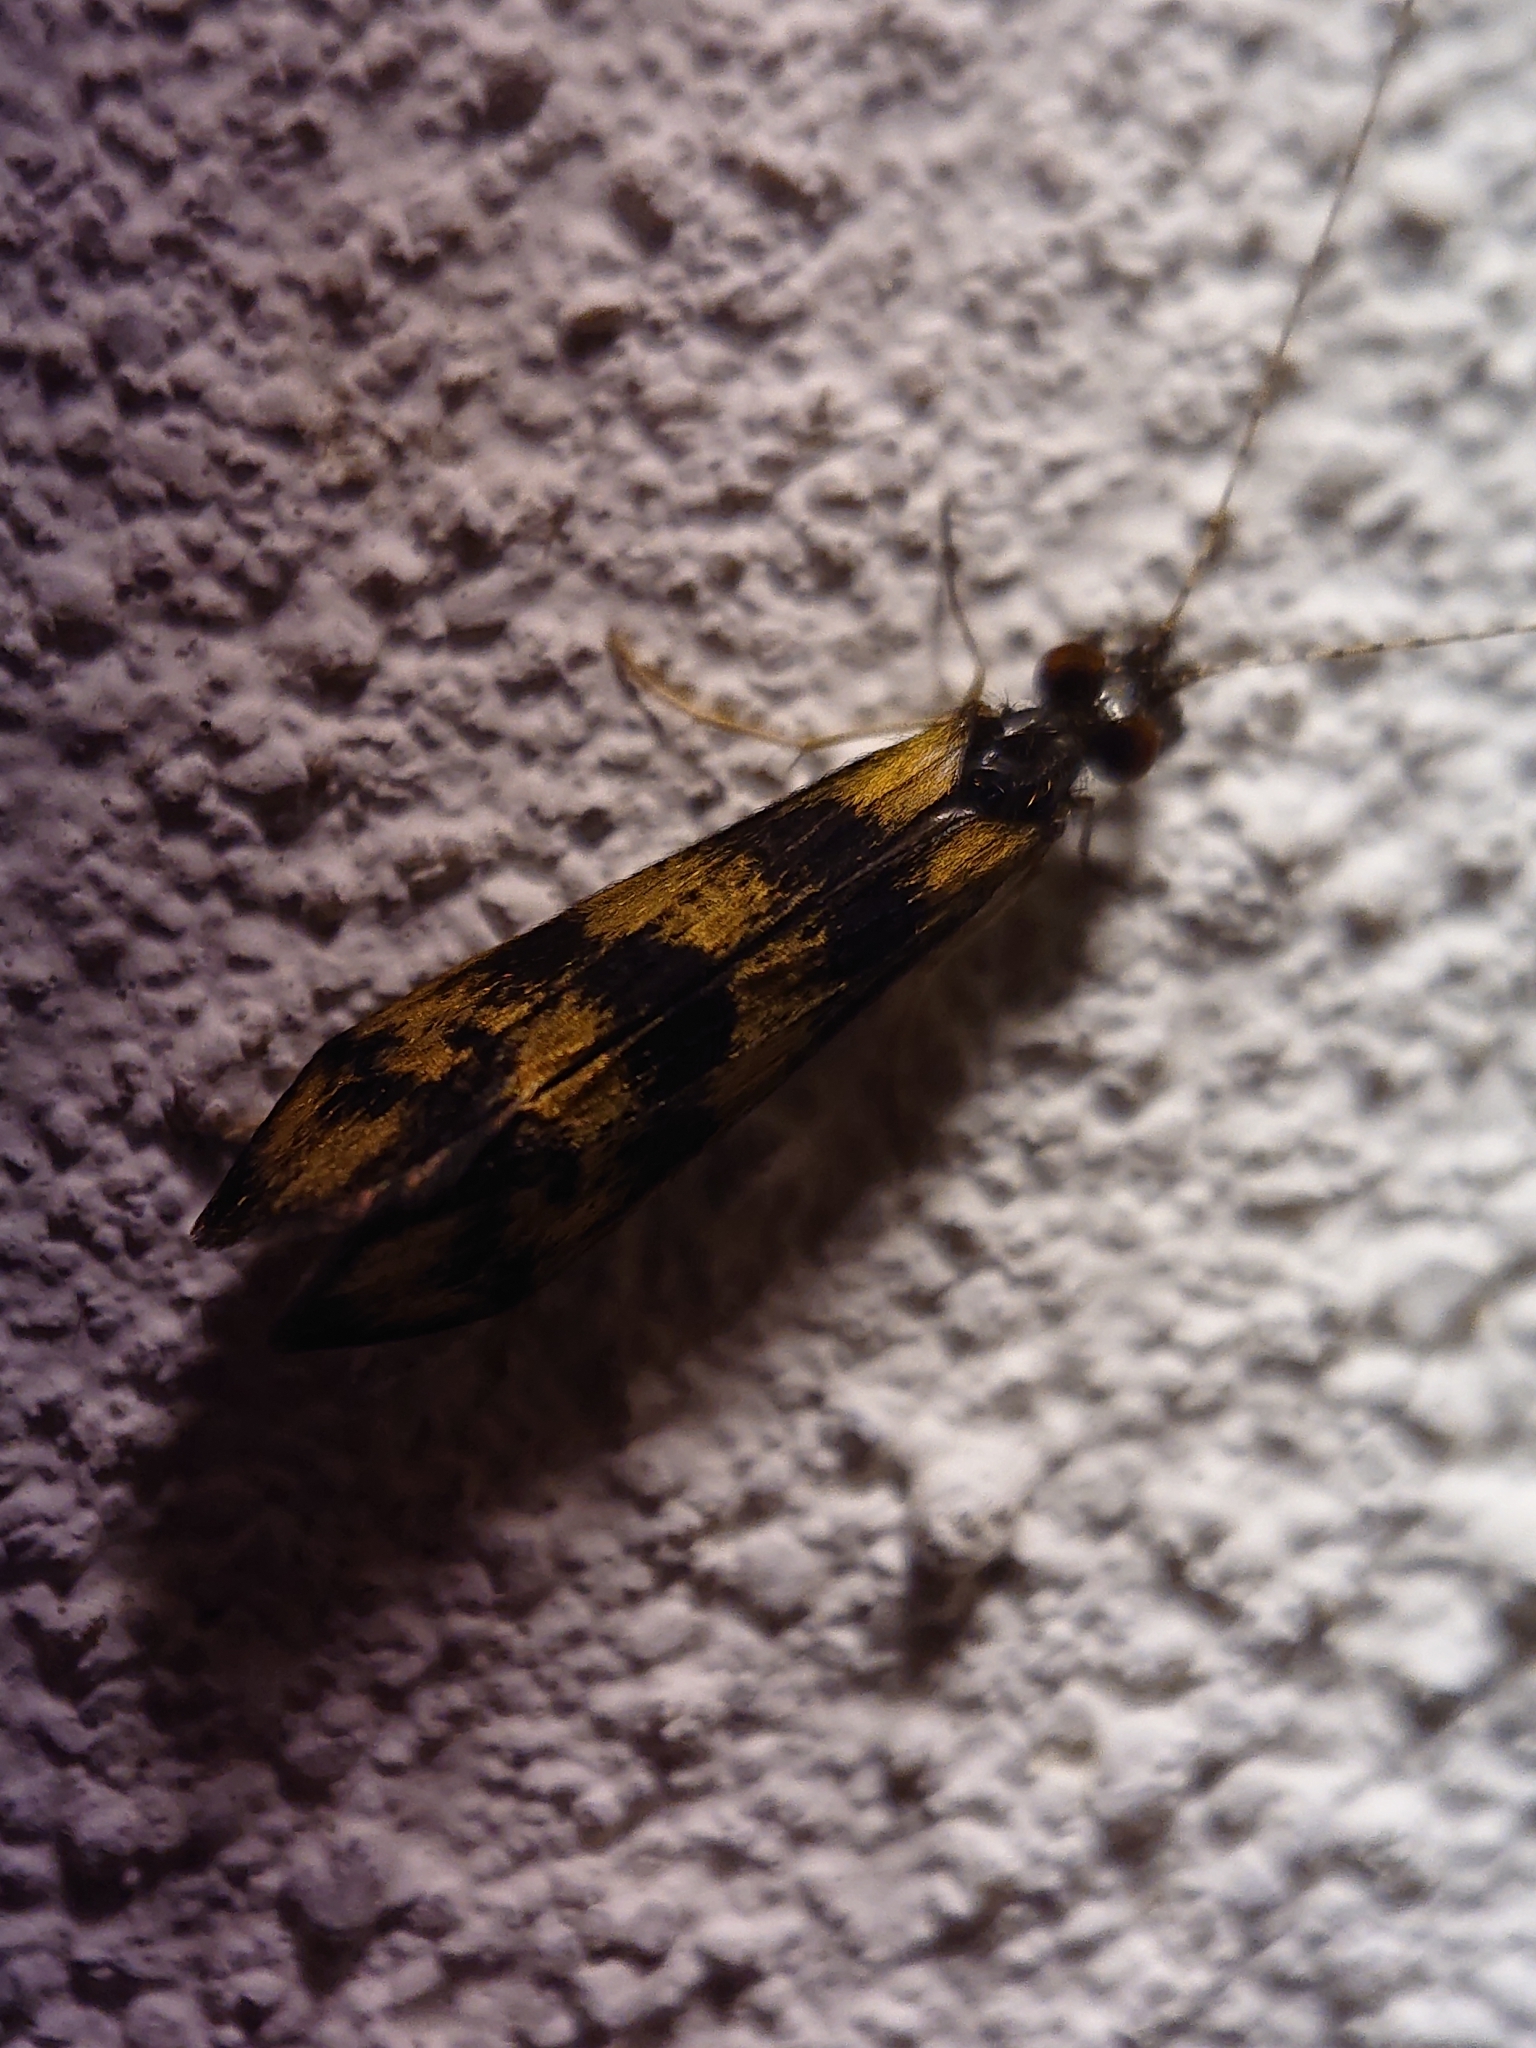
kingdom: Animalia
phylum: Arthropoda
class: Insecta
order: Trichoptera
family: Leptoceridae
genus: Mystacides
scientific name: Mystacides longicornis
